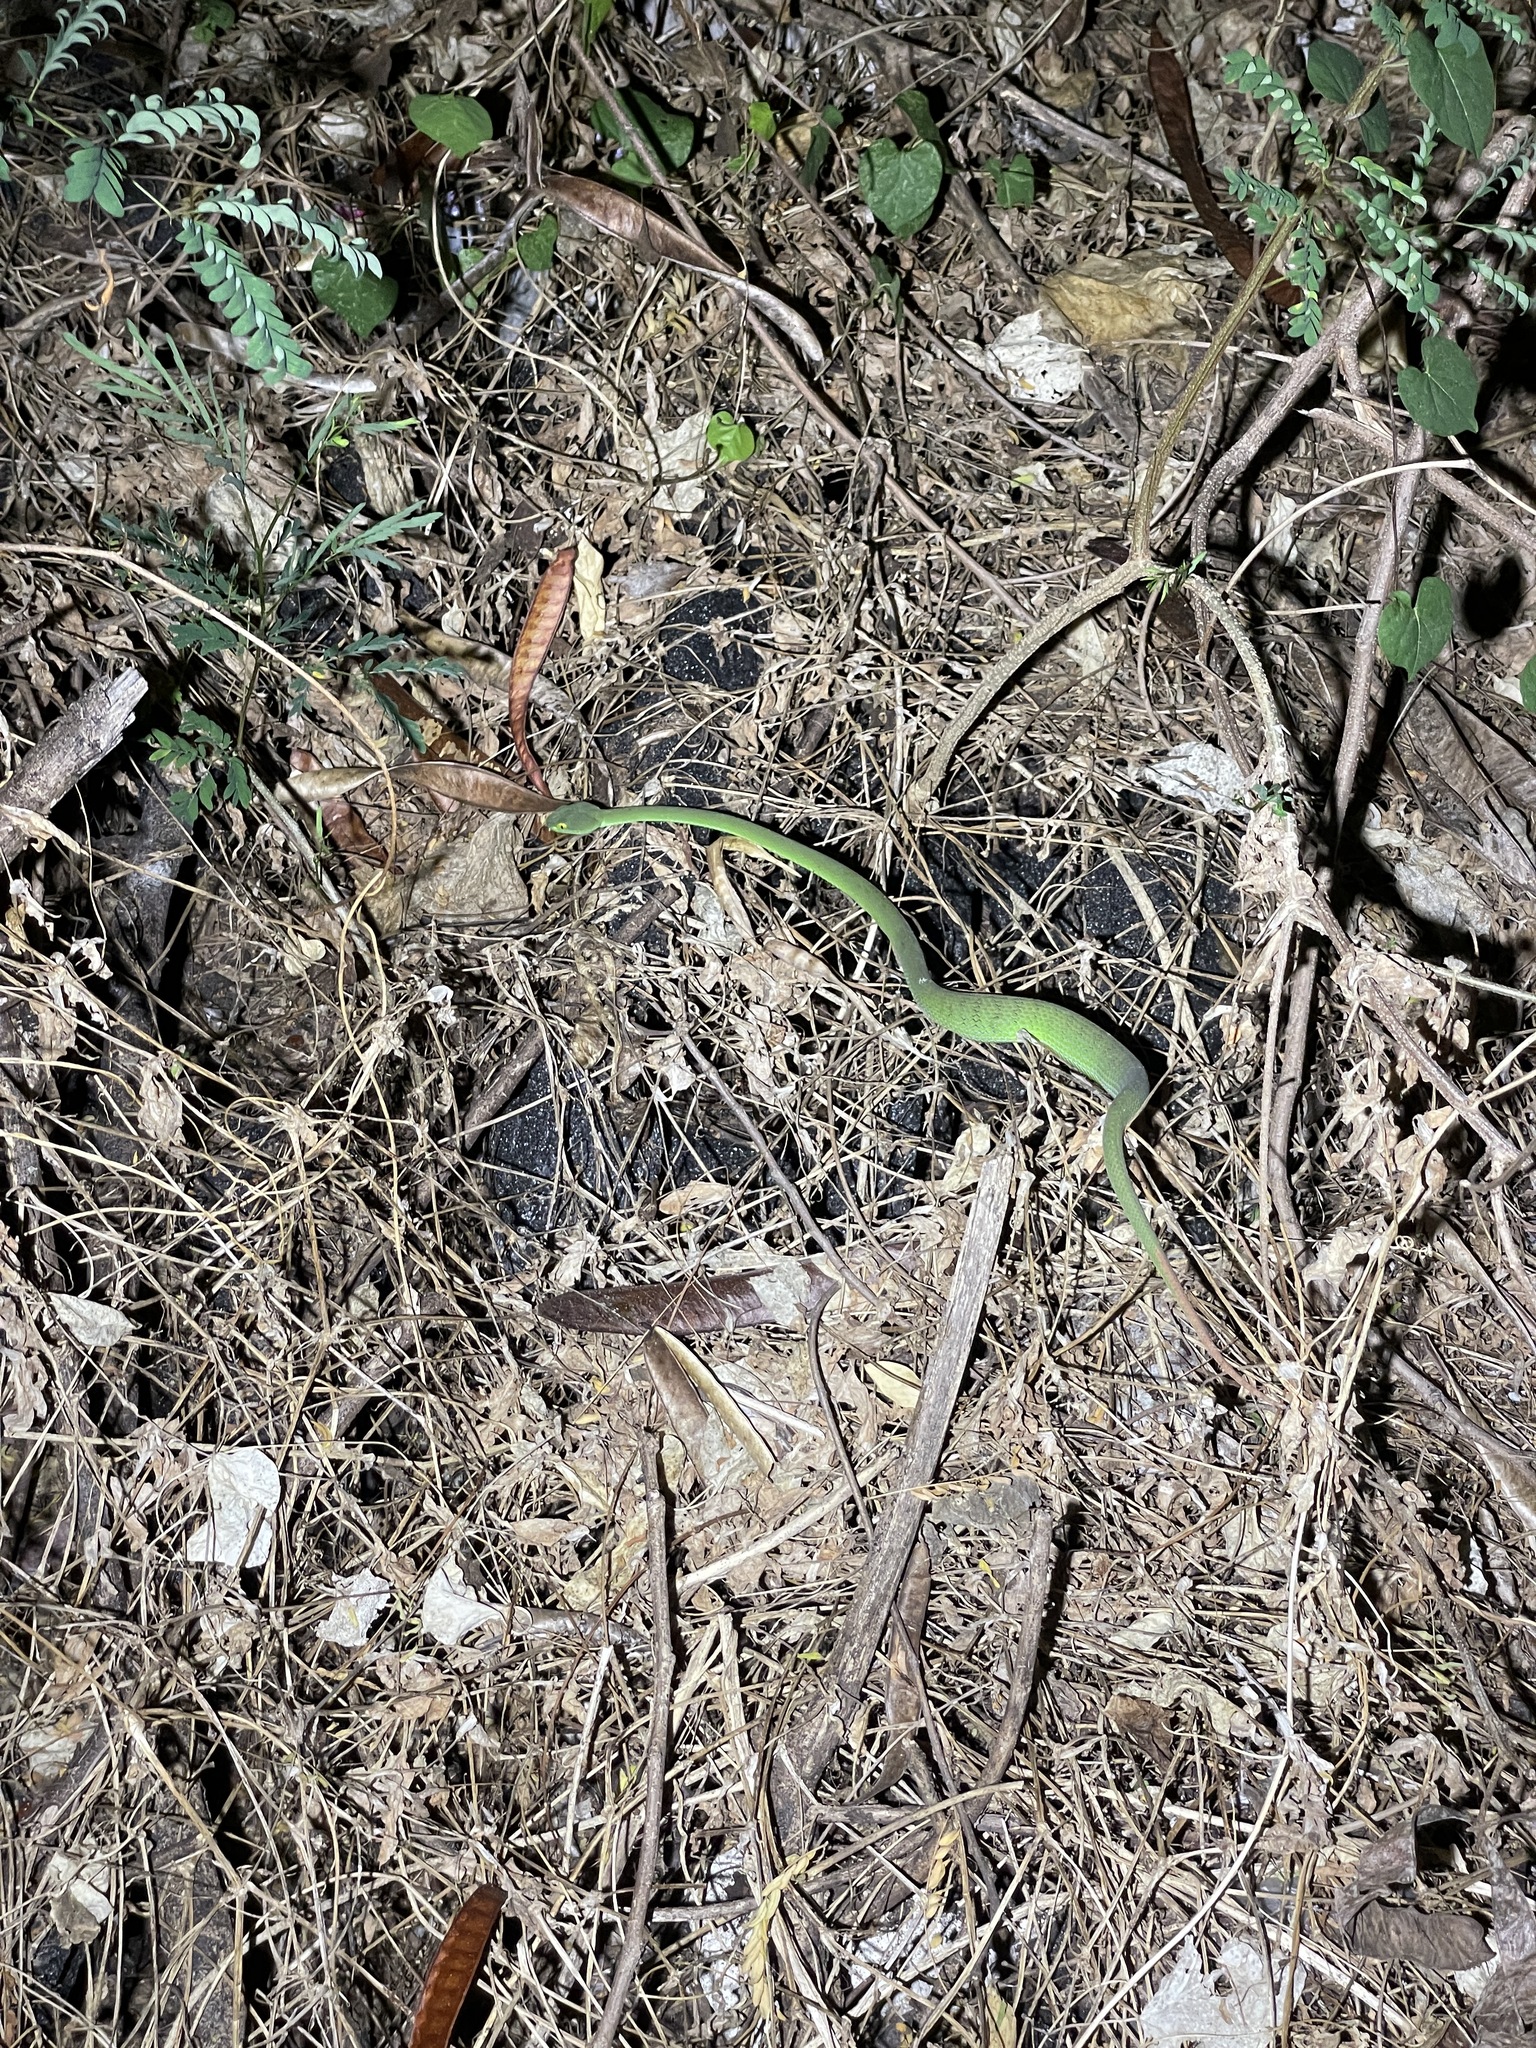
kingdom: Animalia
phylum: Chordata
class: Squamata
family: Viperidae
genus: Trimeresurus
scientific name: Trimeresurus macrops
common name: Kramer's pit viper
